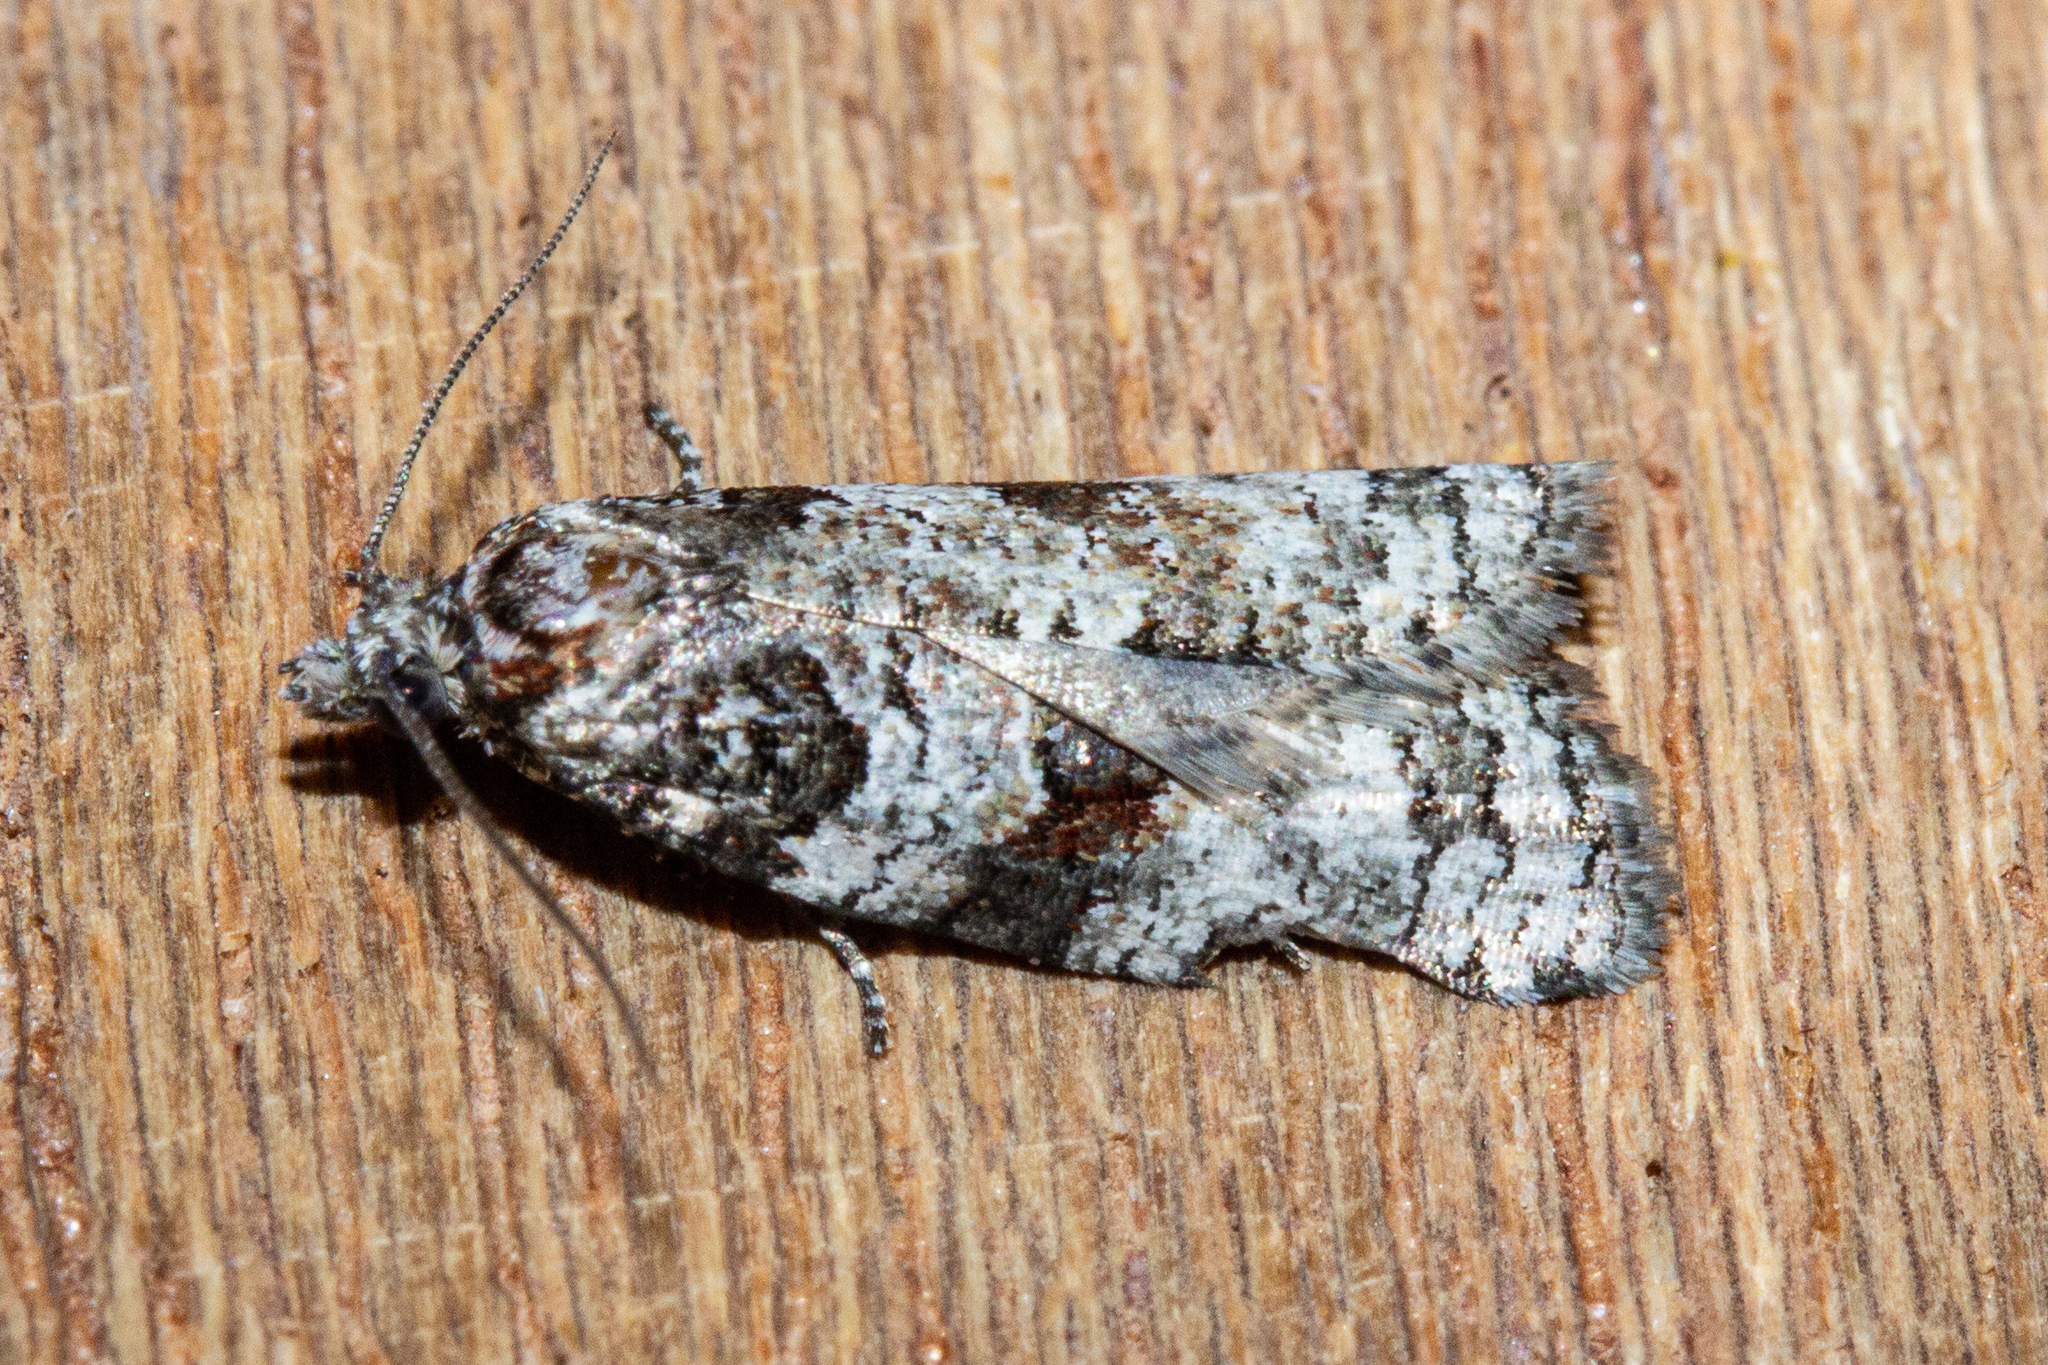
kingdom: Animalia
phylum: Arthropoda
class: Insecta
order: Lepidoptera
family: Tortricidae
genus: Harmologa
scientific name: Harmologa petrias
